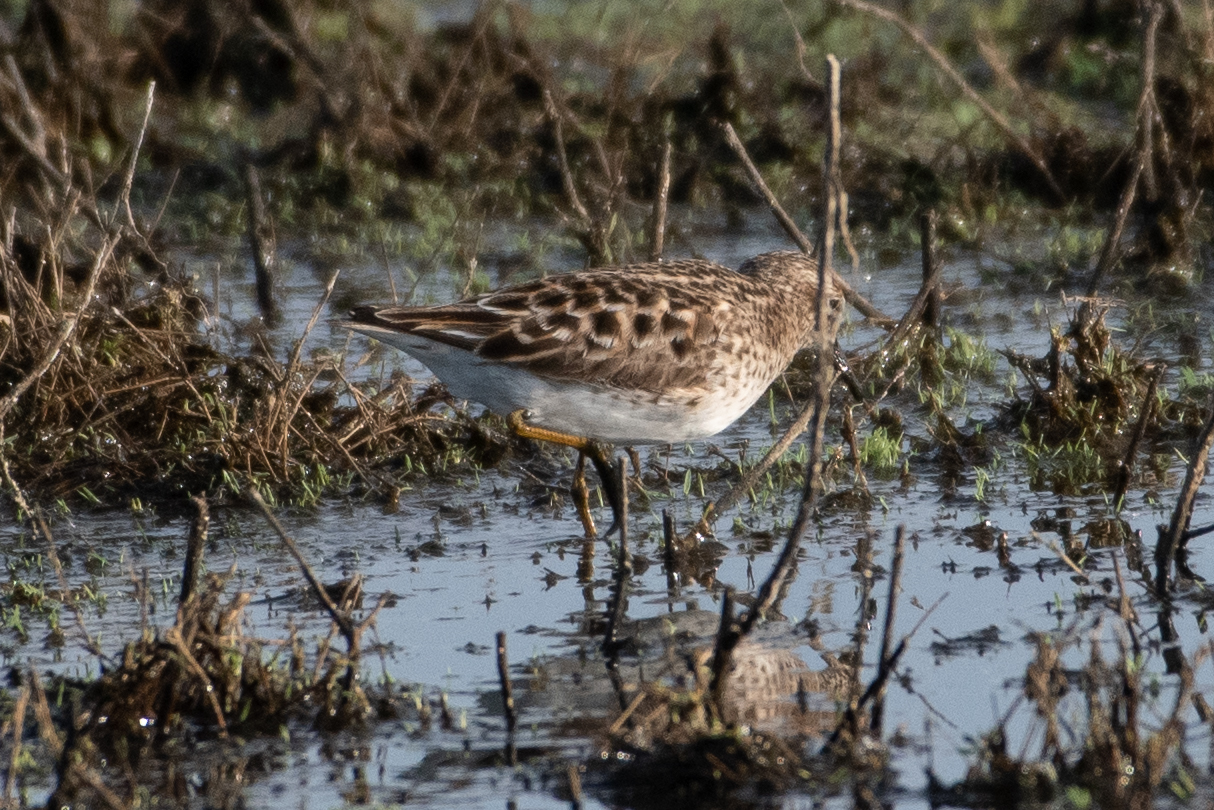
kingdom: Animalia
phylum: Chordata
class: Aves
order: Charadriiformes
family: Scolopacidae
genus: Calidris
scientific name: Calidris minutilla
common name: Least sandpiper
